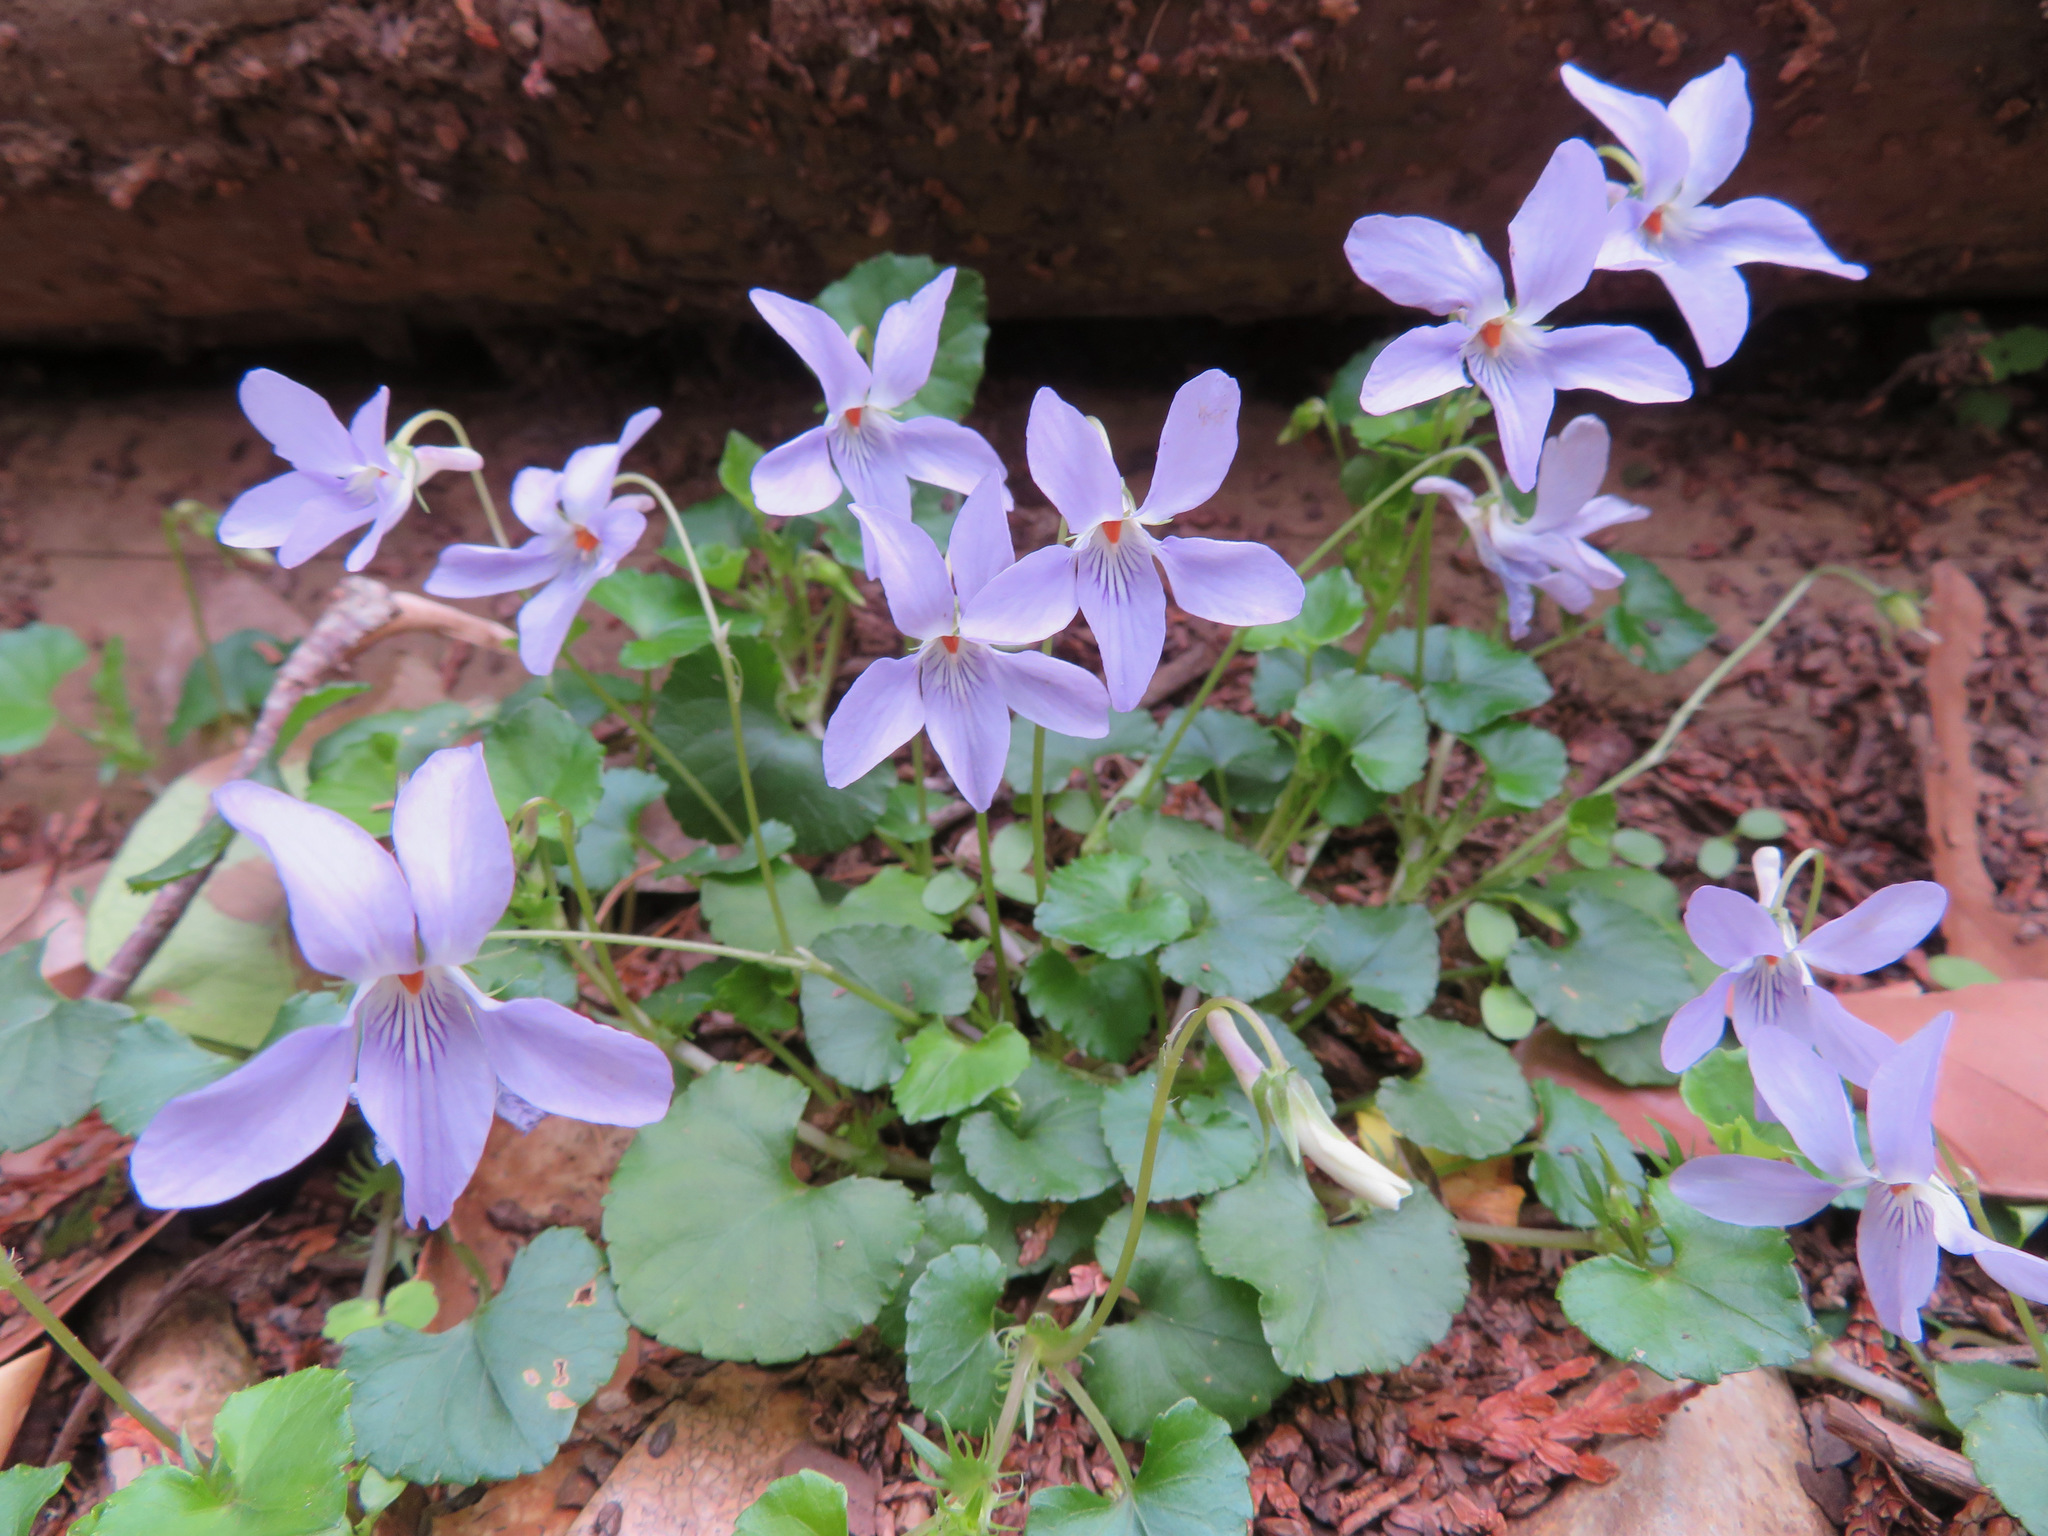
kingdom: Plantae
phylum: Tracheophyta
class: Magnoliopsida
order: Malpighiales
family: Violaceae
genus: Viola
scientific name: Viola grypoceras
